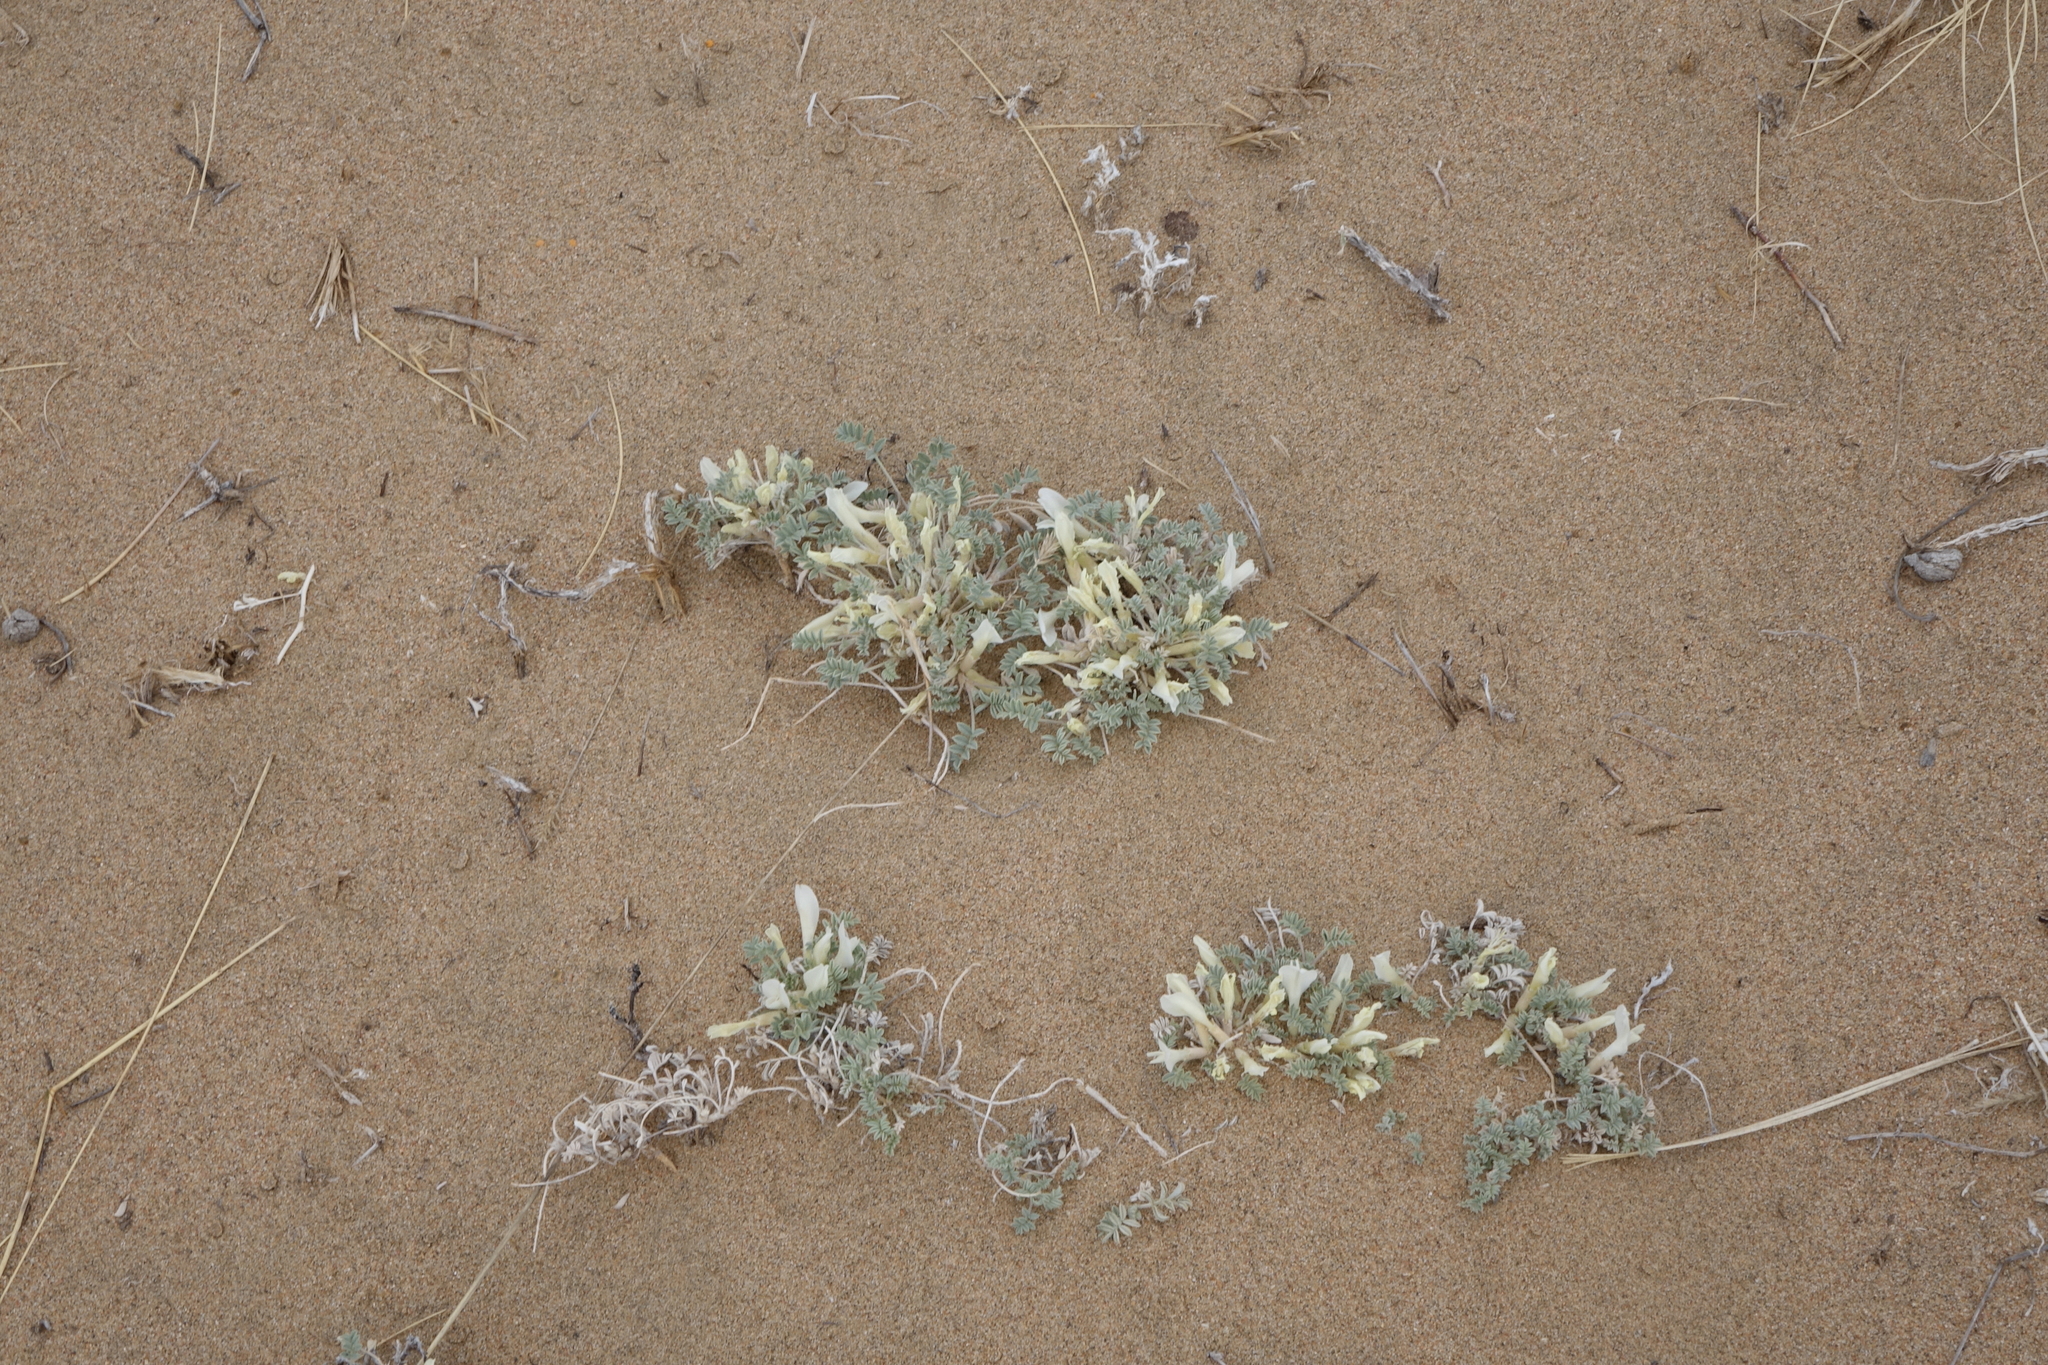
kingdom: Plantae
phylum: Tracheophyta
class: Magnoliopsida
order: Fabales
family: Fabaceae
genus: Astragalus
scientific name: Astragalus teskhemicus
